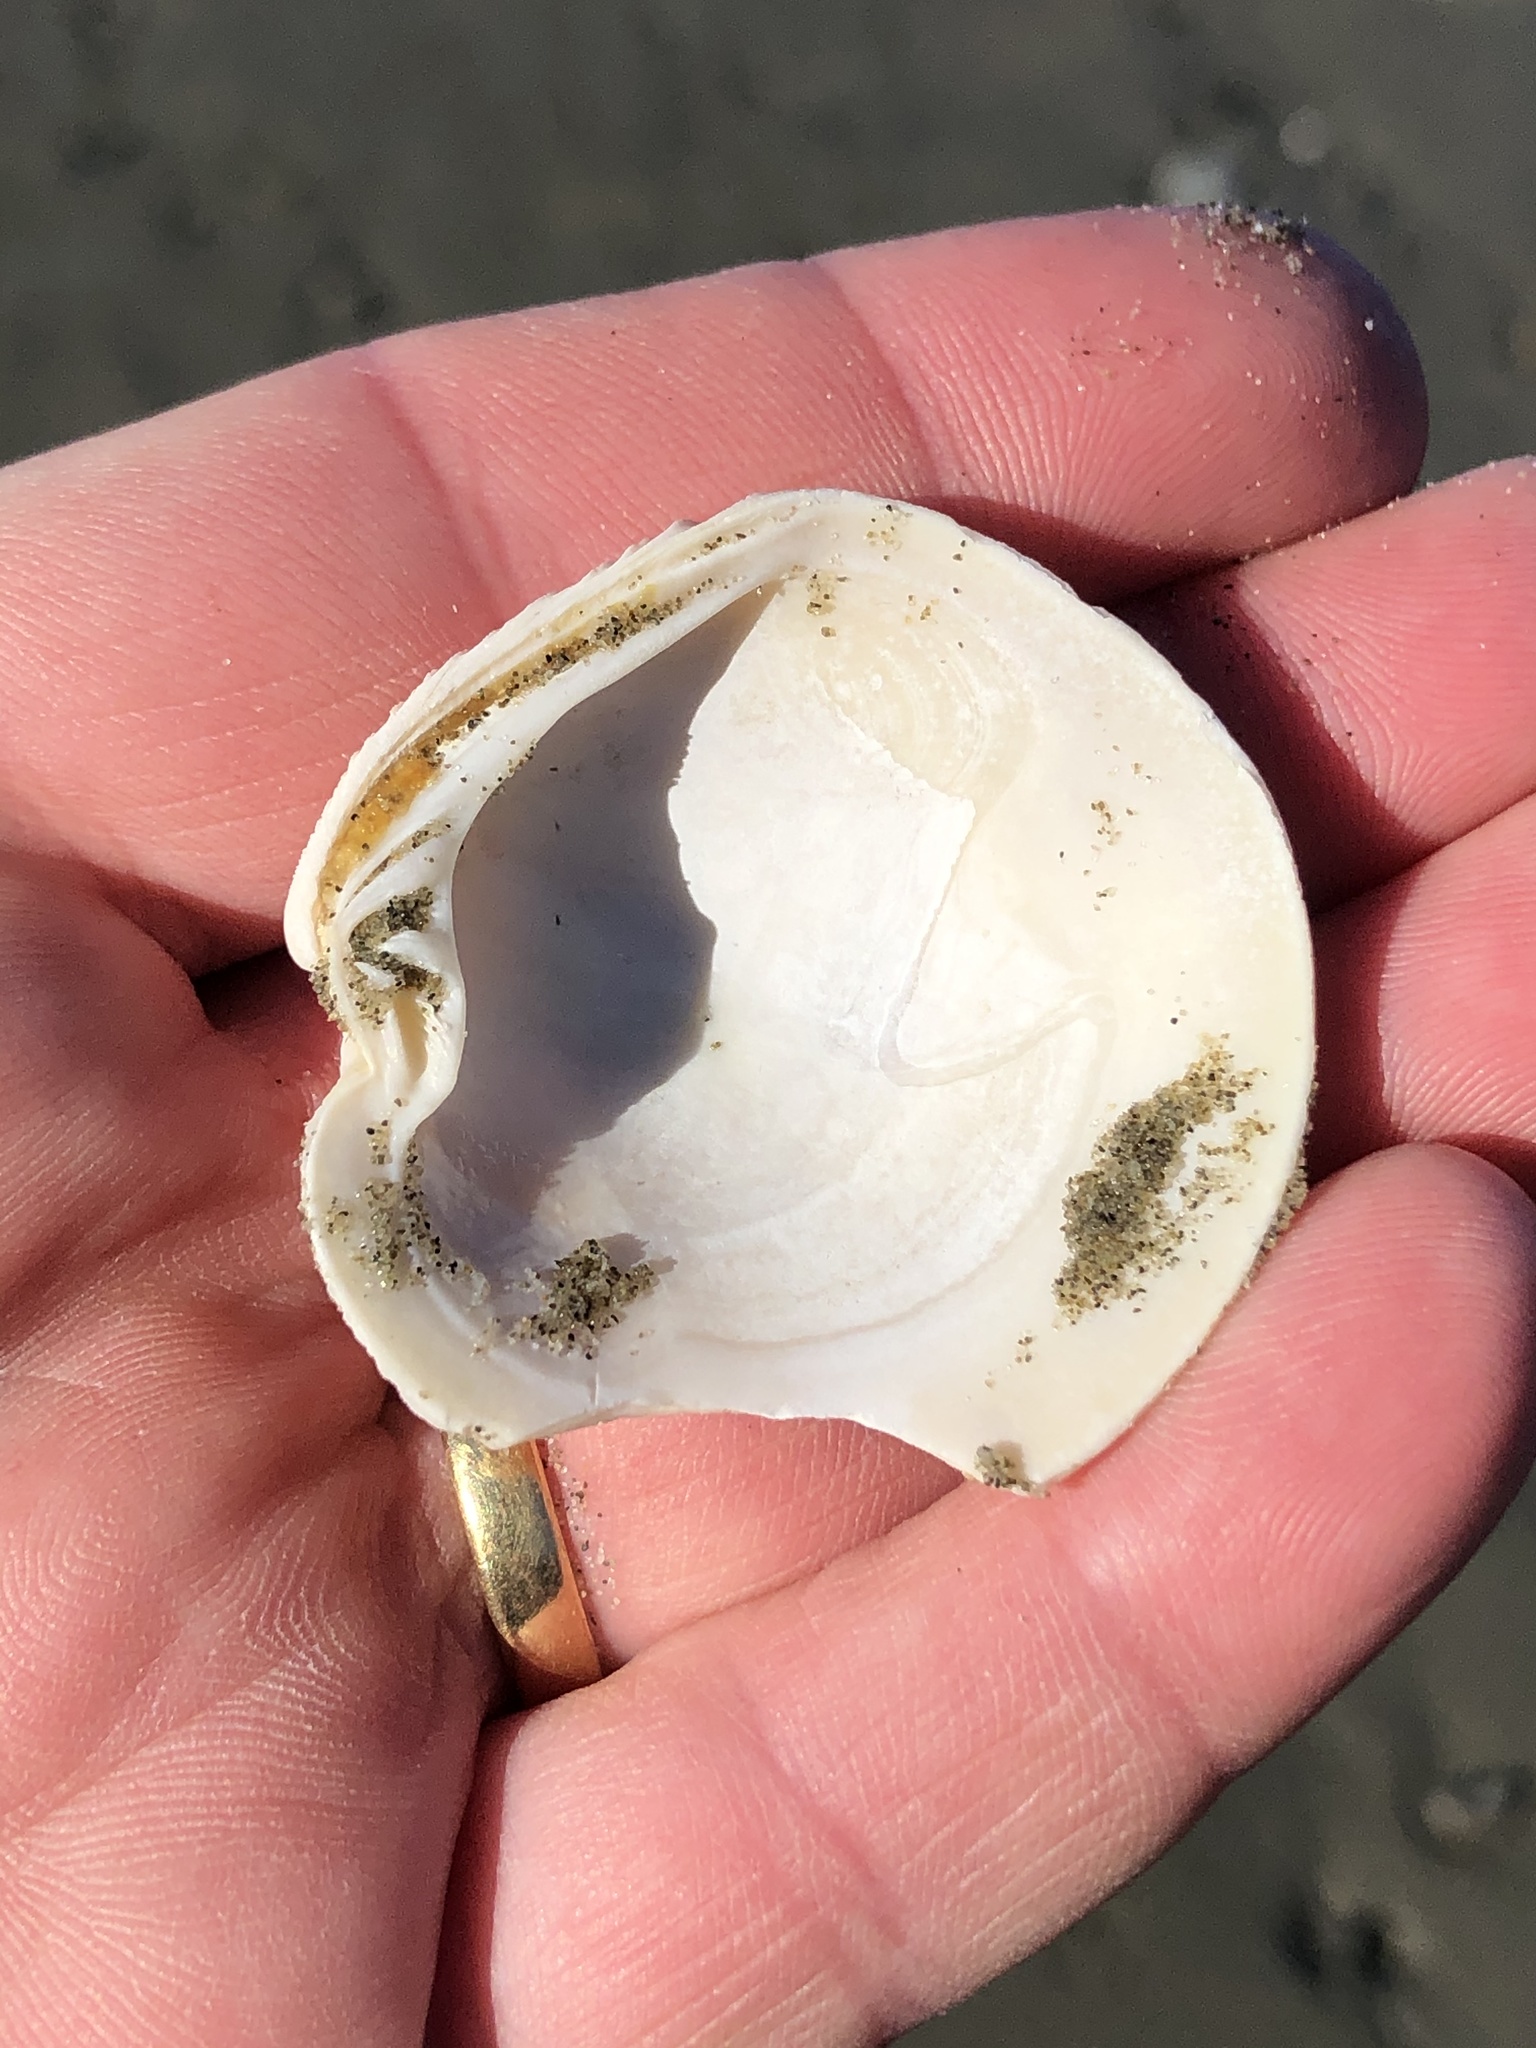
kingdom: Animalia
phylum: Mollusca
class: Bivalvia
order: Venerida
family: Veneridae
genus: Dosinia
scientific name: Dosinia anus
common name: Old-woman dosinia
